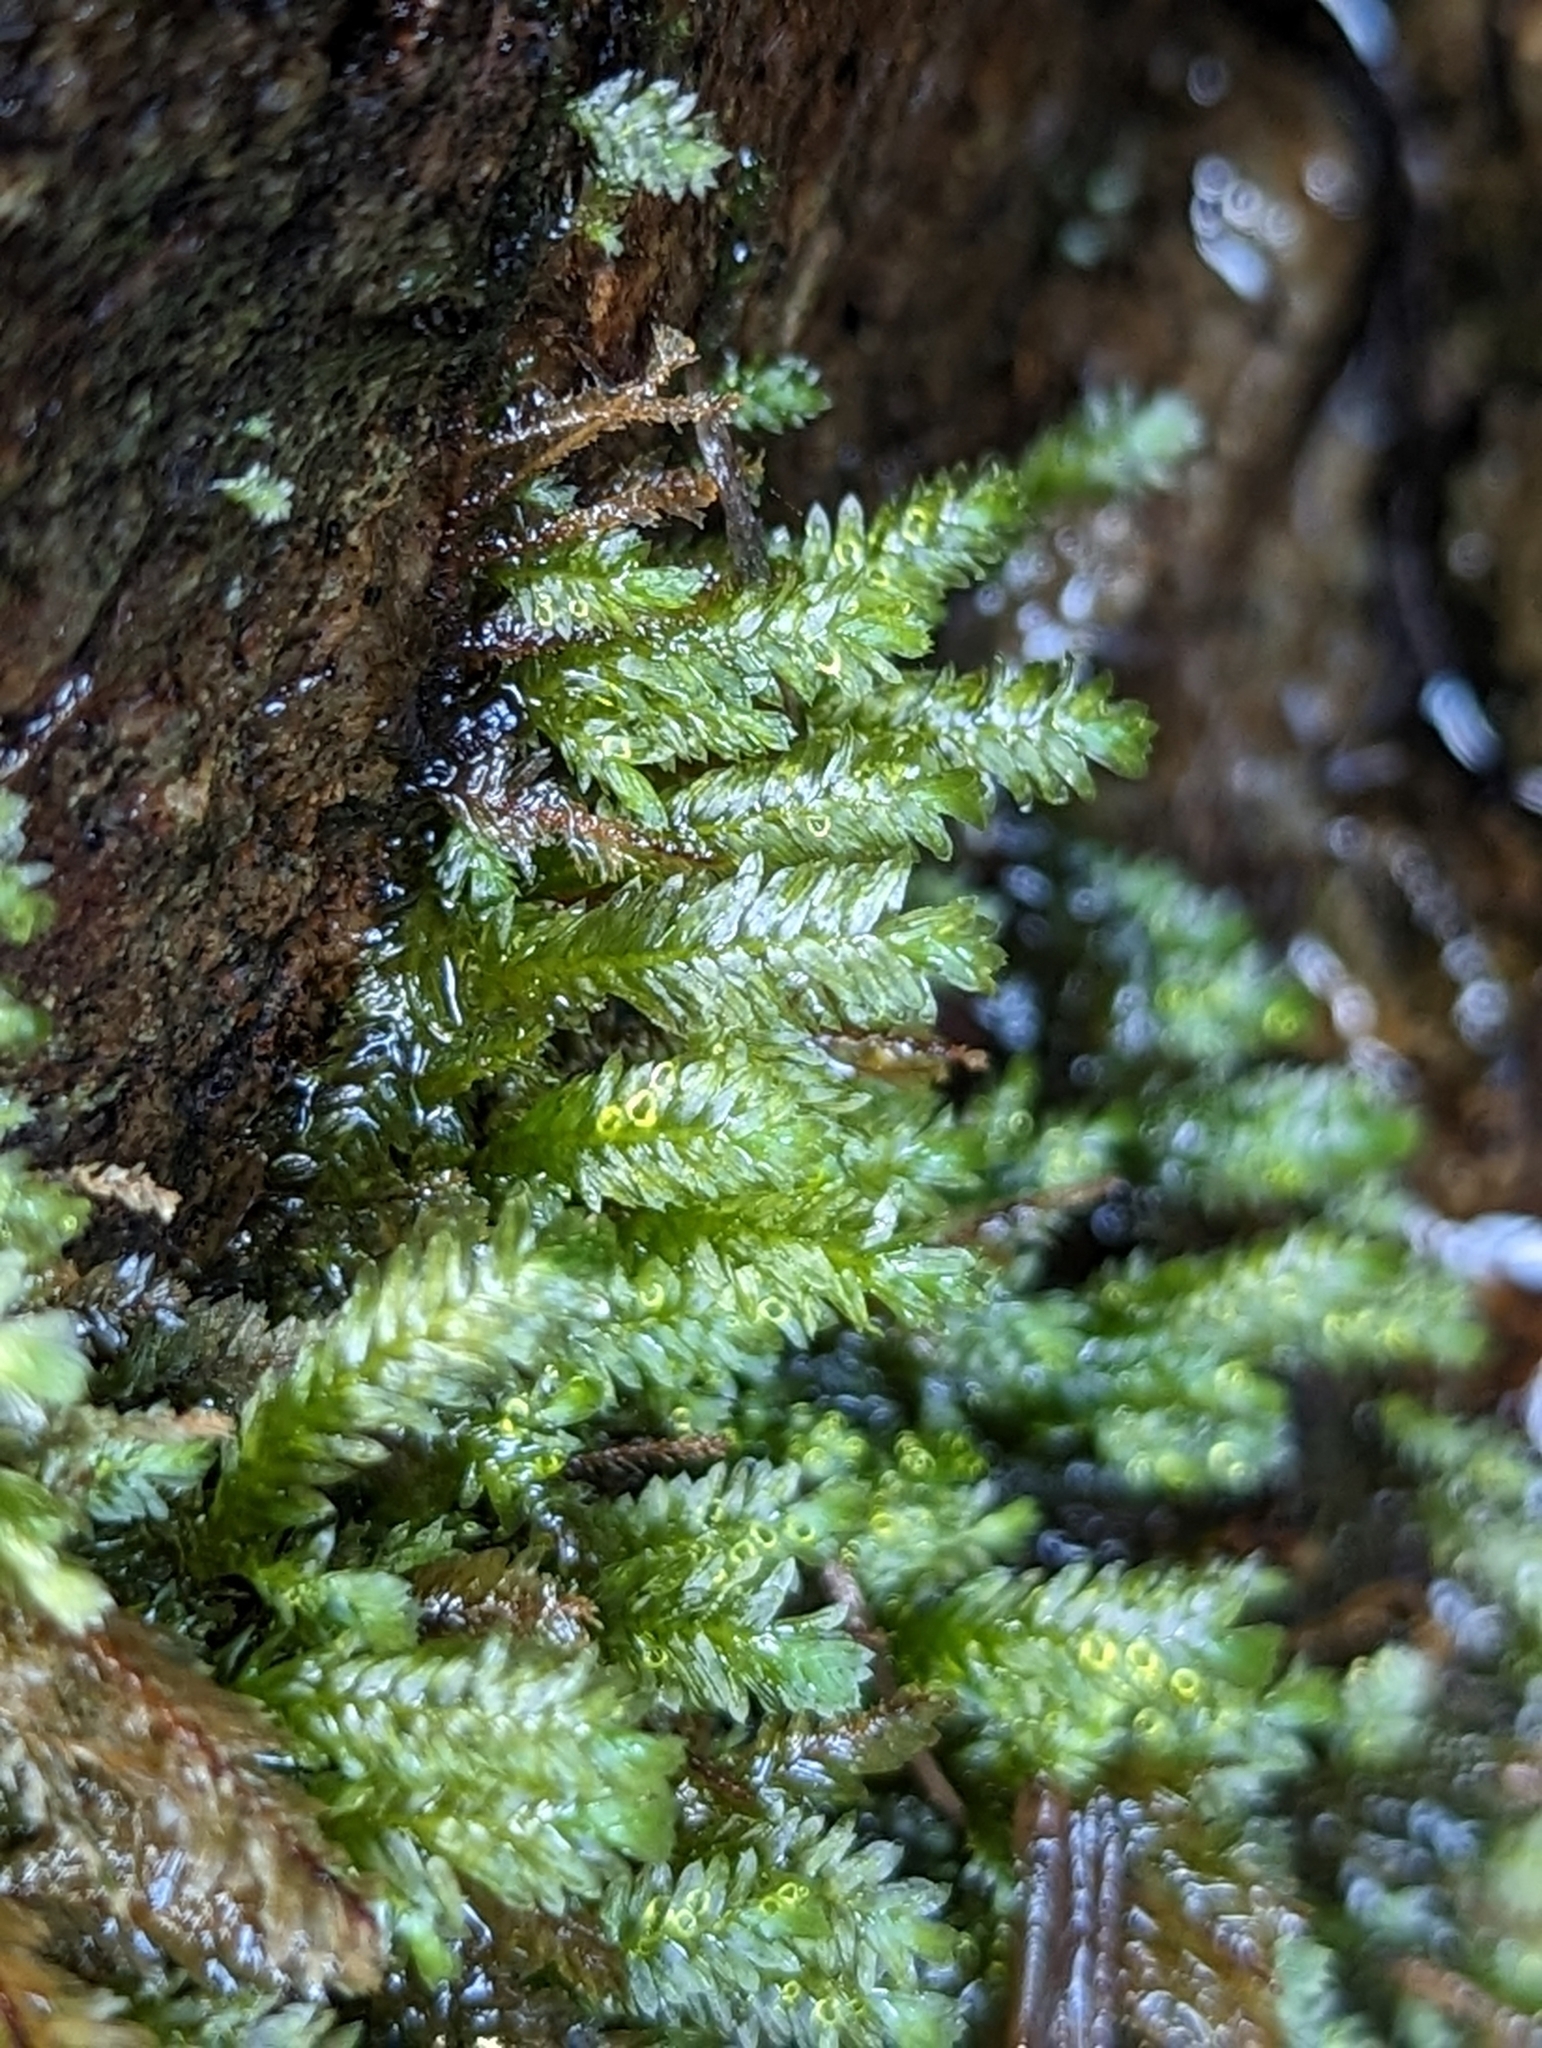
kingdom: Plantae
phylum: Bryophyta
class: Bryopsida
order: Hypnales
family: Neckeraceae
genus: Dannorrisia
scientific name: Dannorrisia bigelovii
